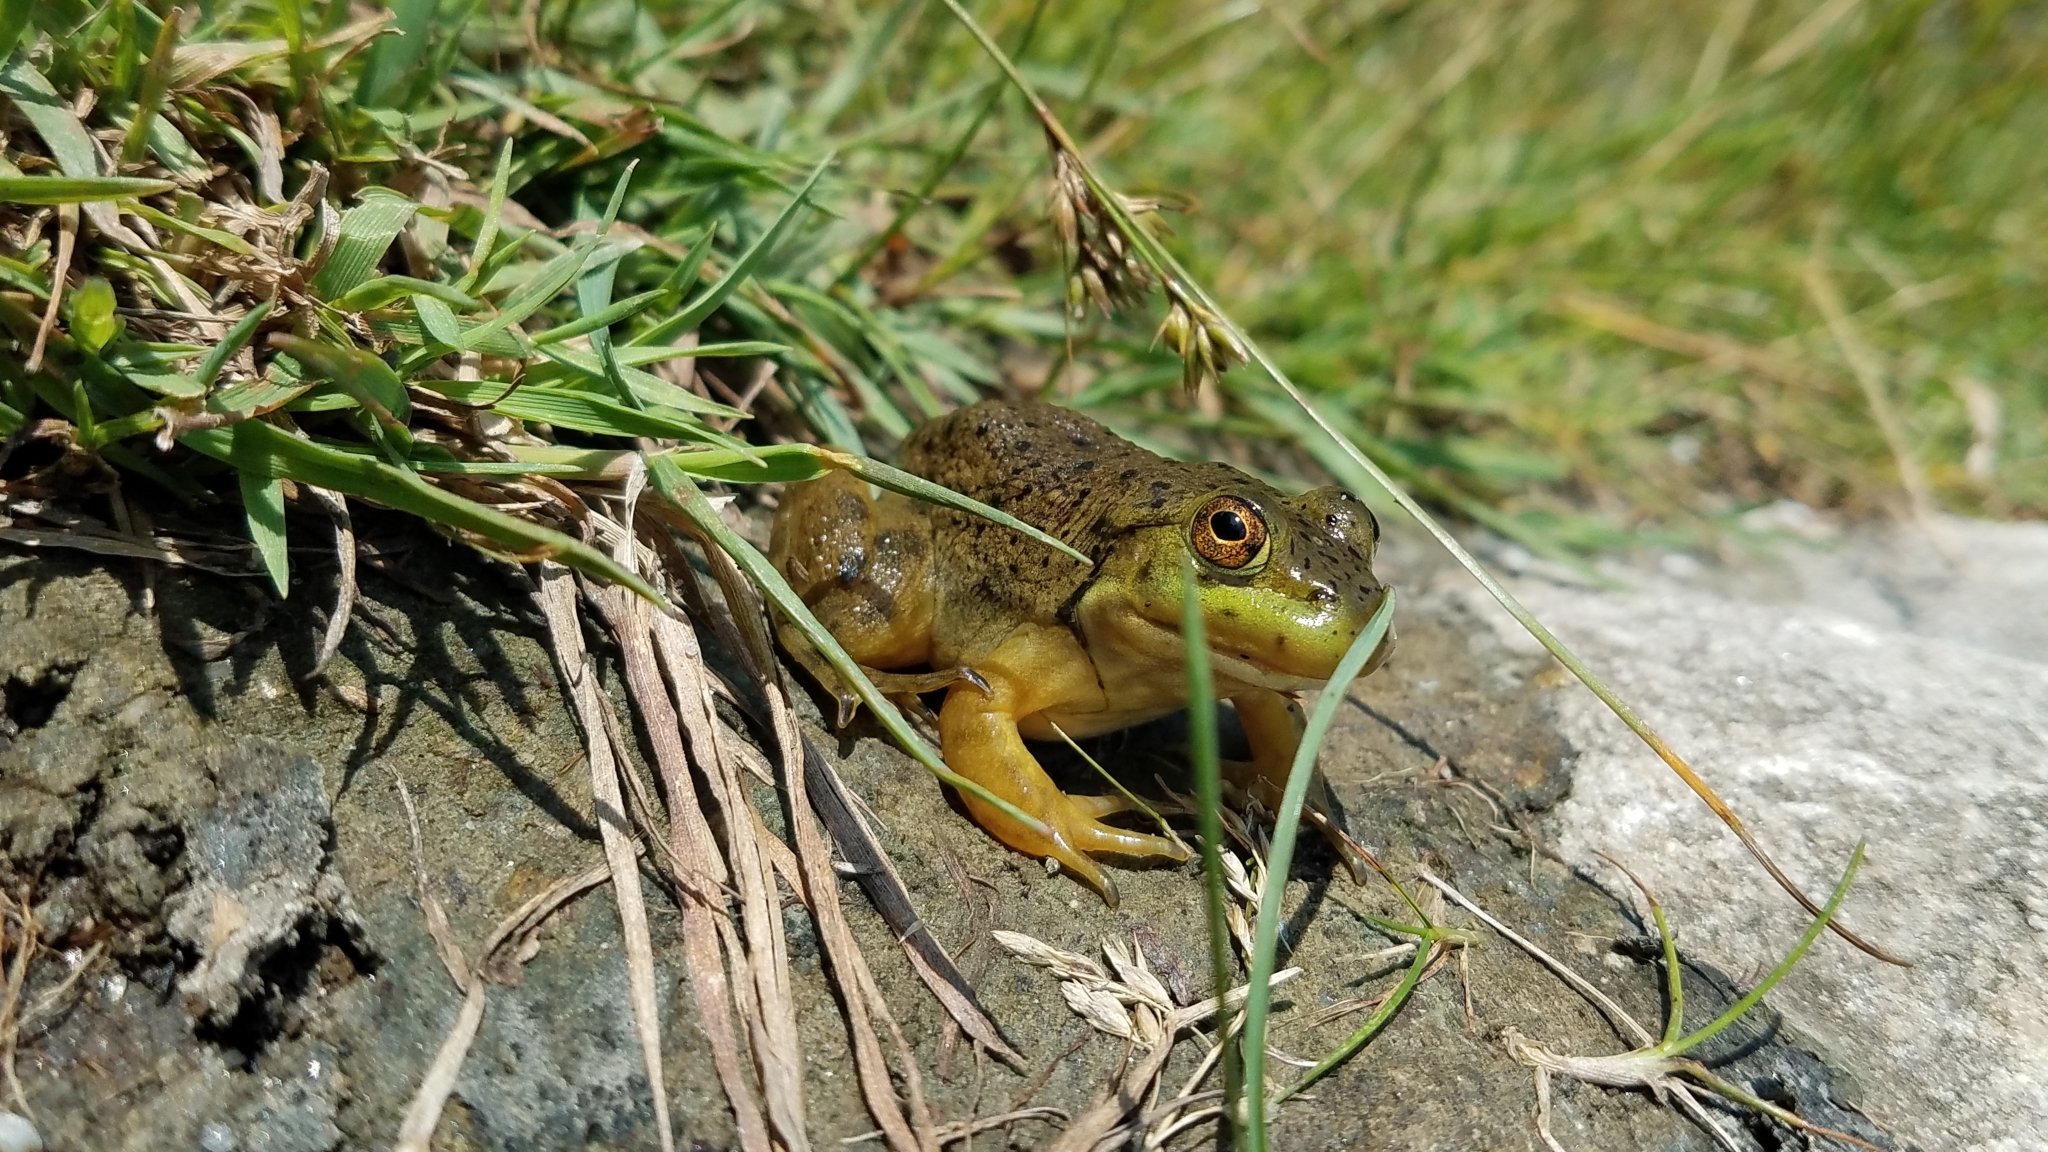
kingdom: Animalia
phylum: Chordata
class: Amphibia
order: Anura
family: Ranidae
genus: Lithobates
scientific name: Lithobates catesbeianus
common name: American bullfrog
